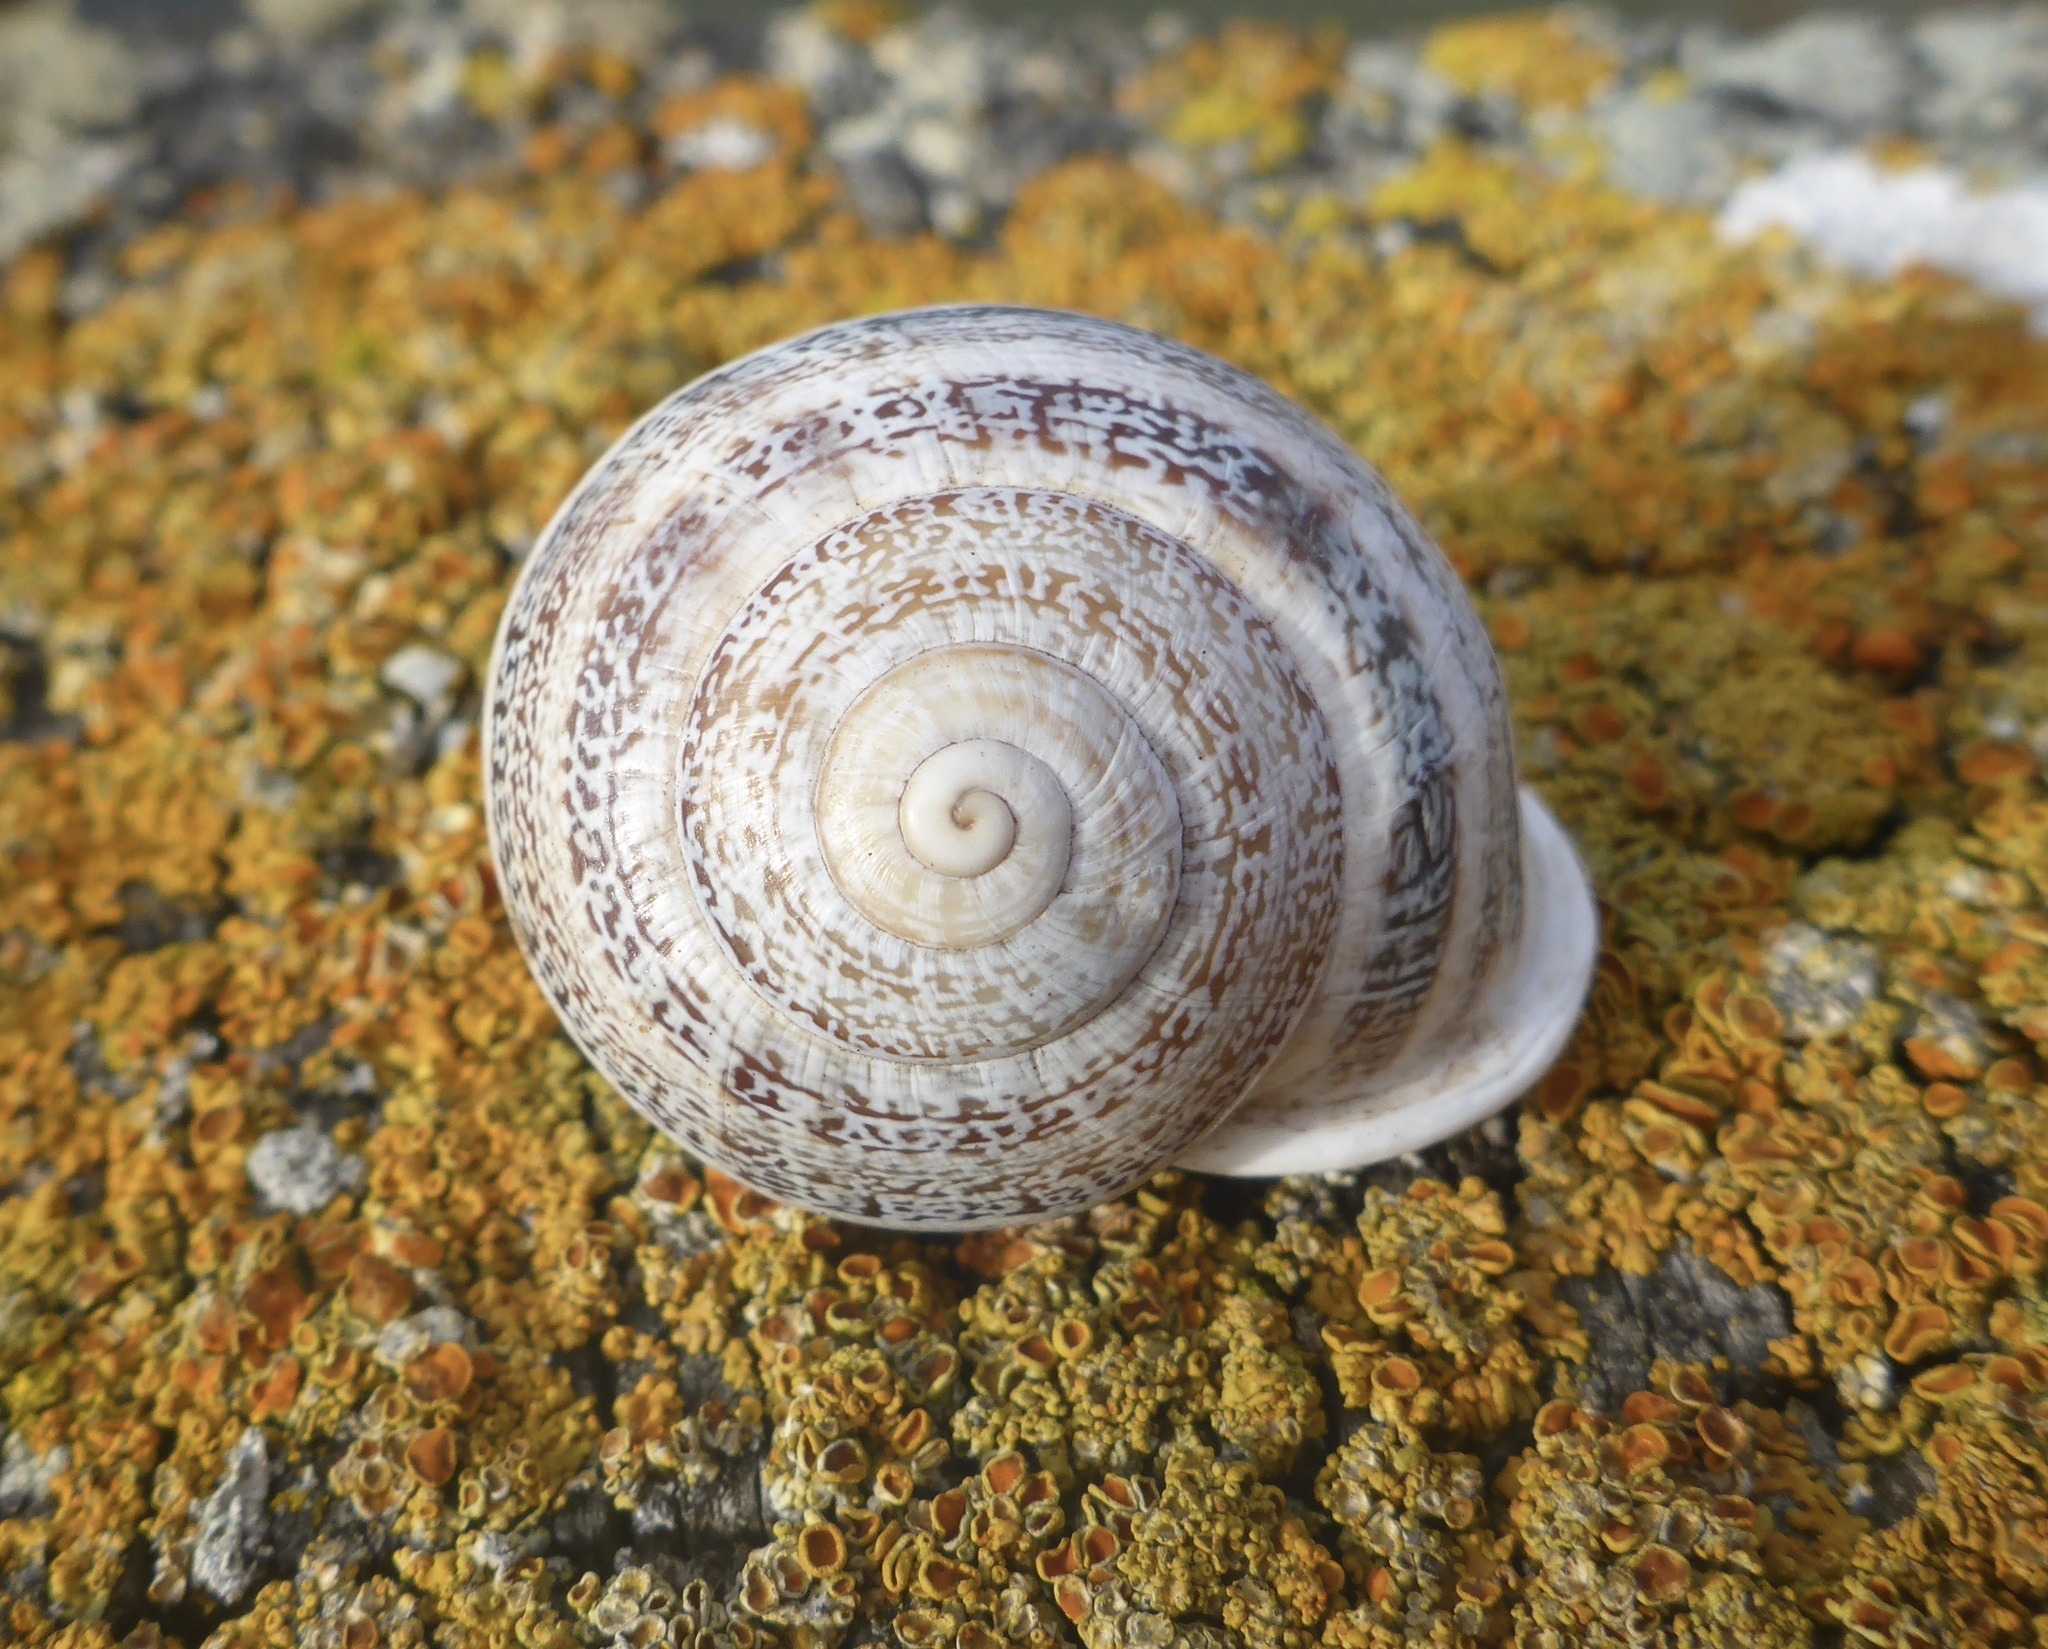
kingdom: Animalia
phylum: Mollusca
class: Gastropoda
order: Stylommatophora
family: Helicidae
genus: Otala
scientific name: Otala lactea
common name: Milk snail
